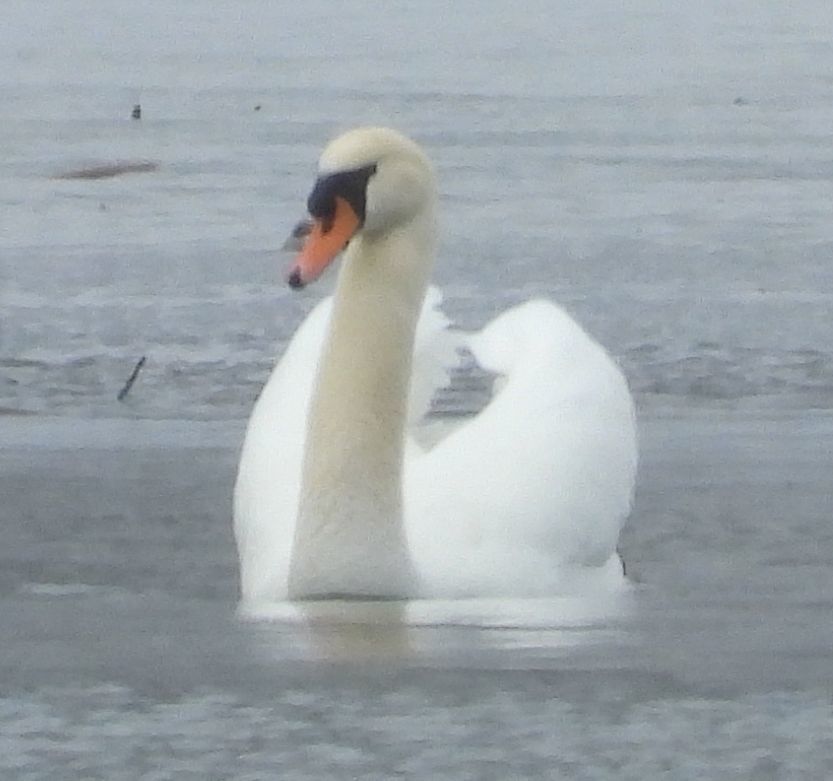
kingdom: Animalia
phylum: Chordata
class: Aves
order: Anseriformes
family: Anatidae
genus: Cygnus
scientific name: Cygnus olor
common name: Mute swan
